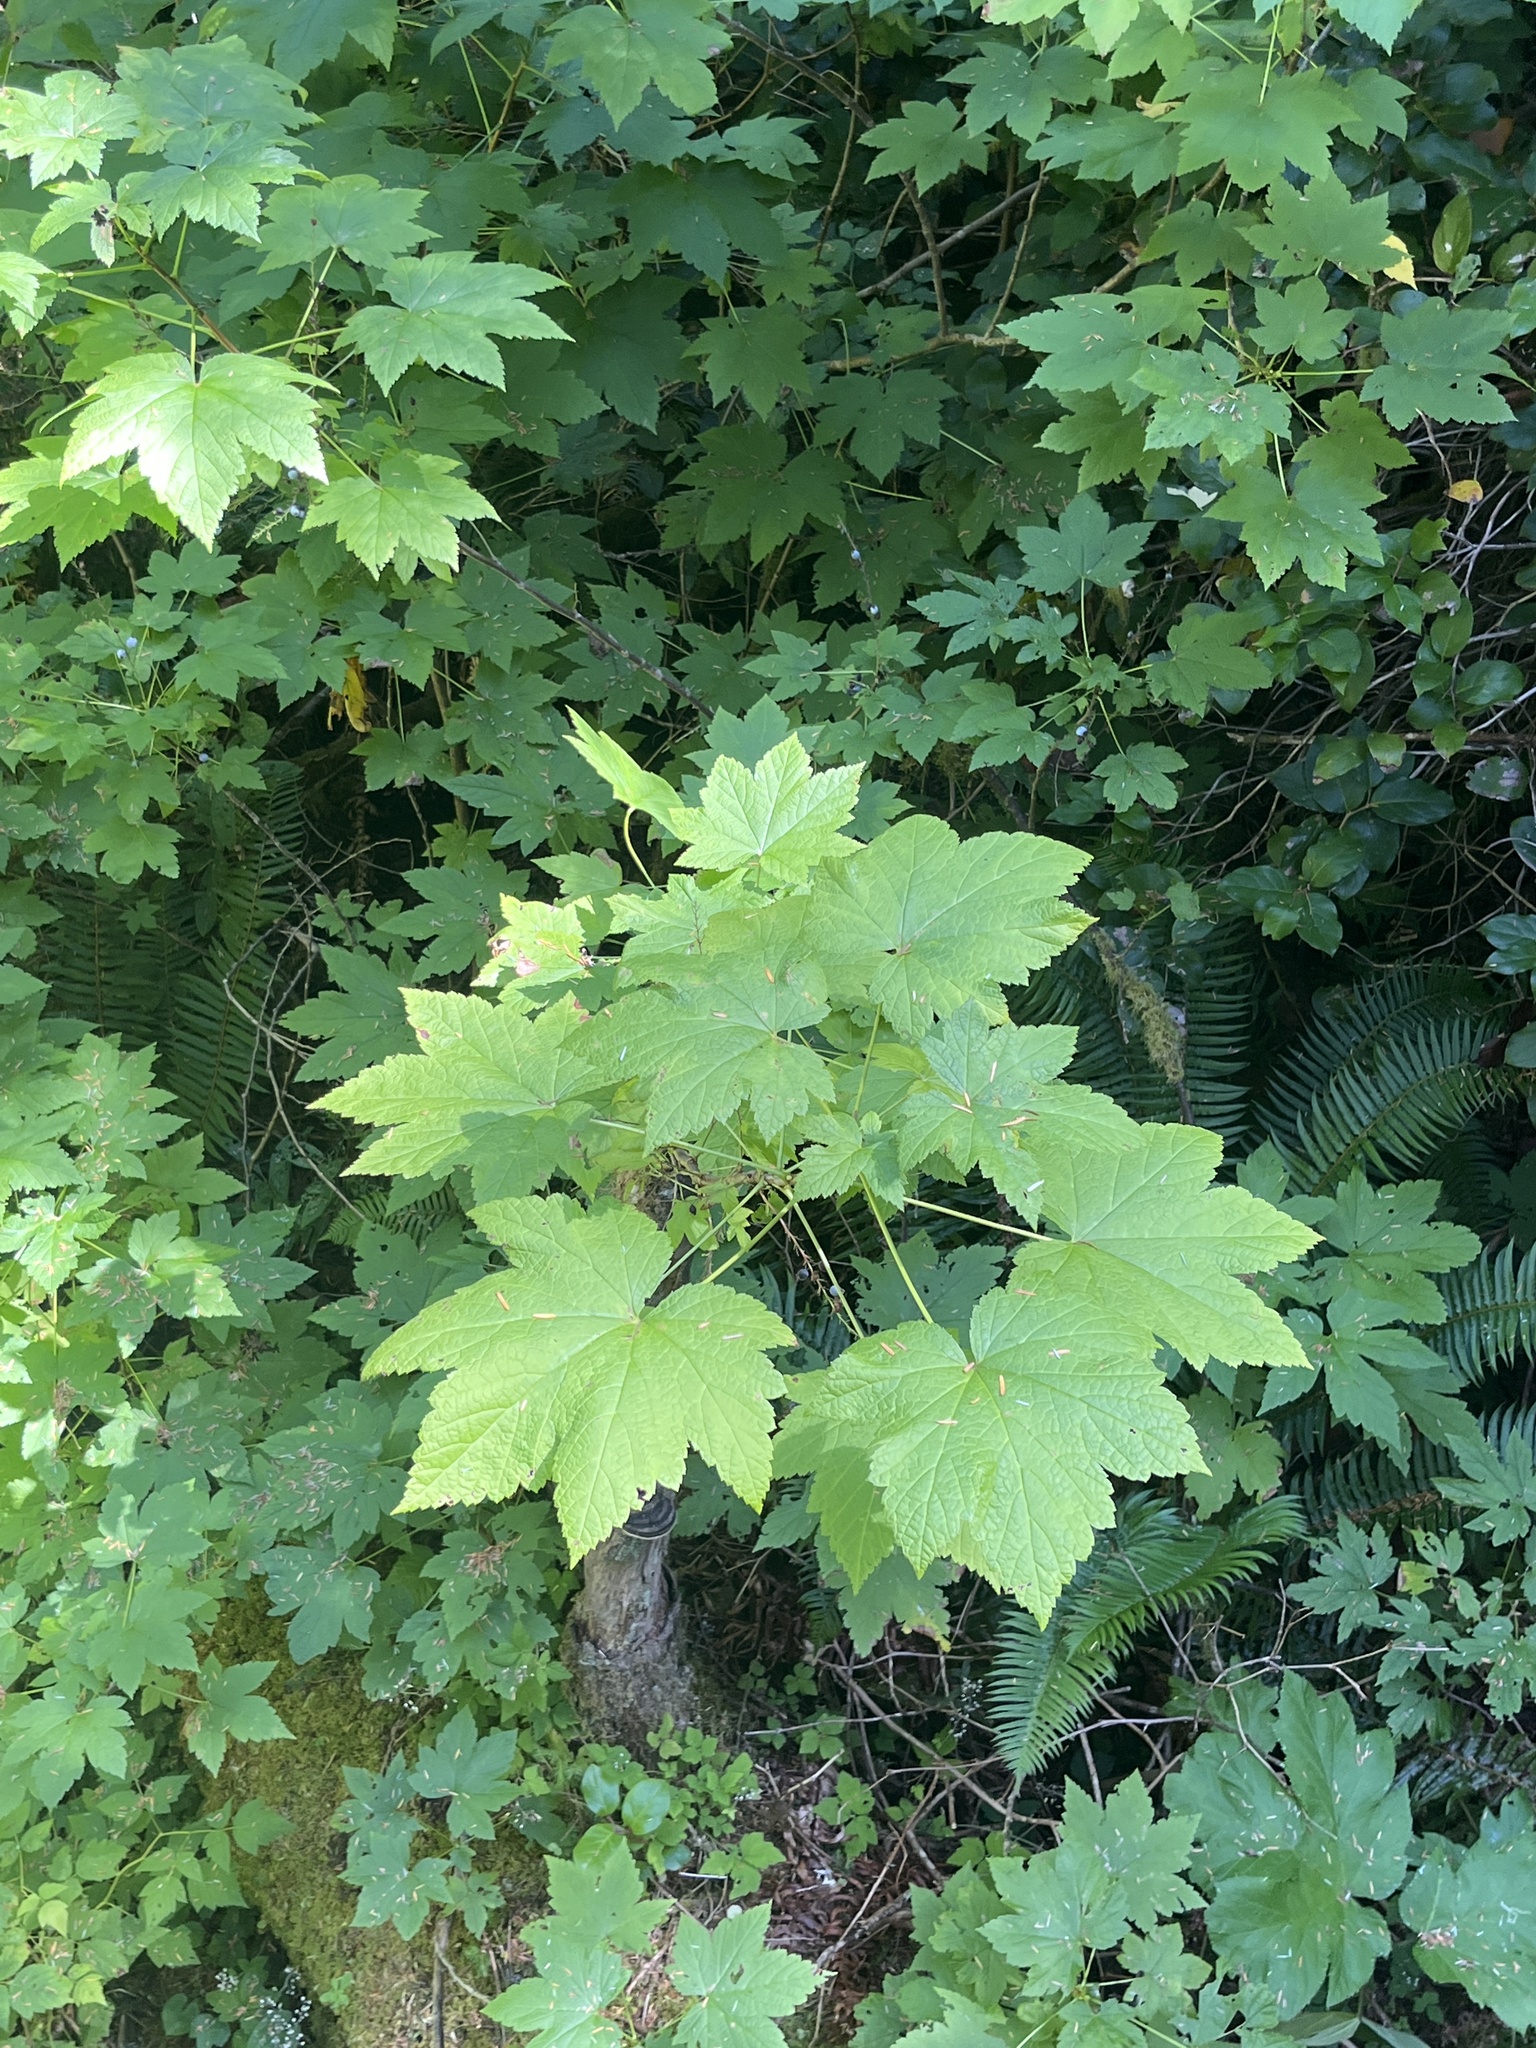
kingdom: Plantae
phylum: Tracheophyta
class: Magnoliopsida
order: Saxifragales
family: Grossulariaceae
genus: Ribes
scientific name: Ribes bracteosum
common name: California black currant
